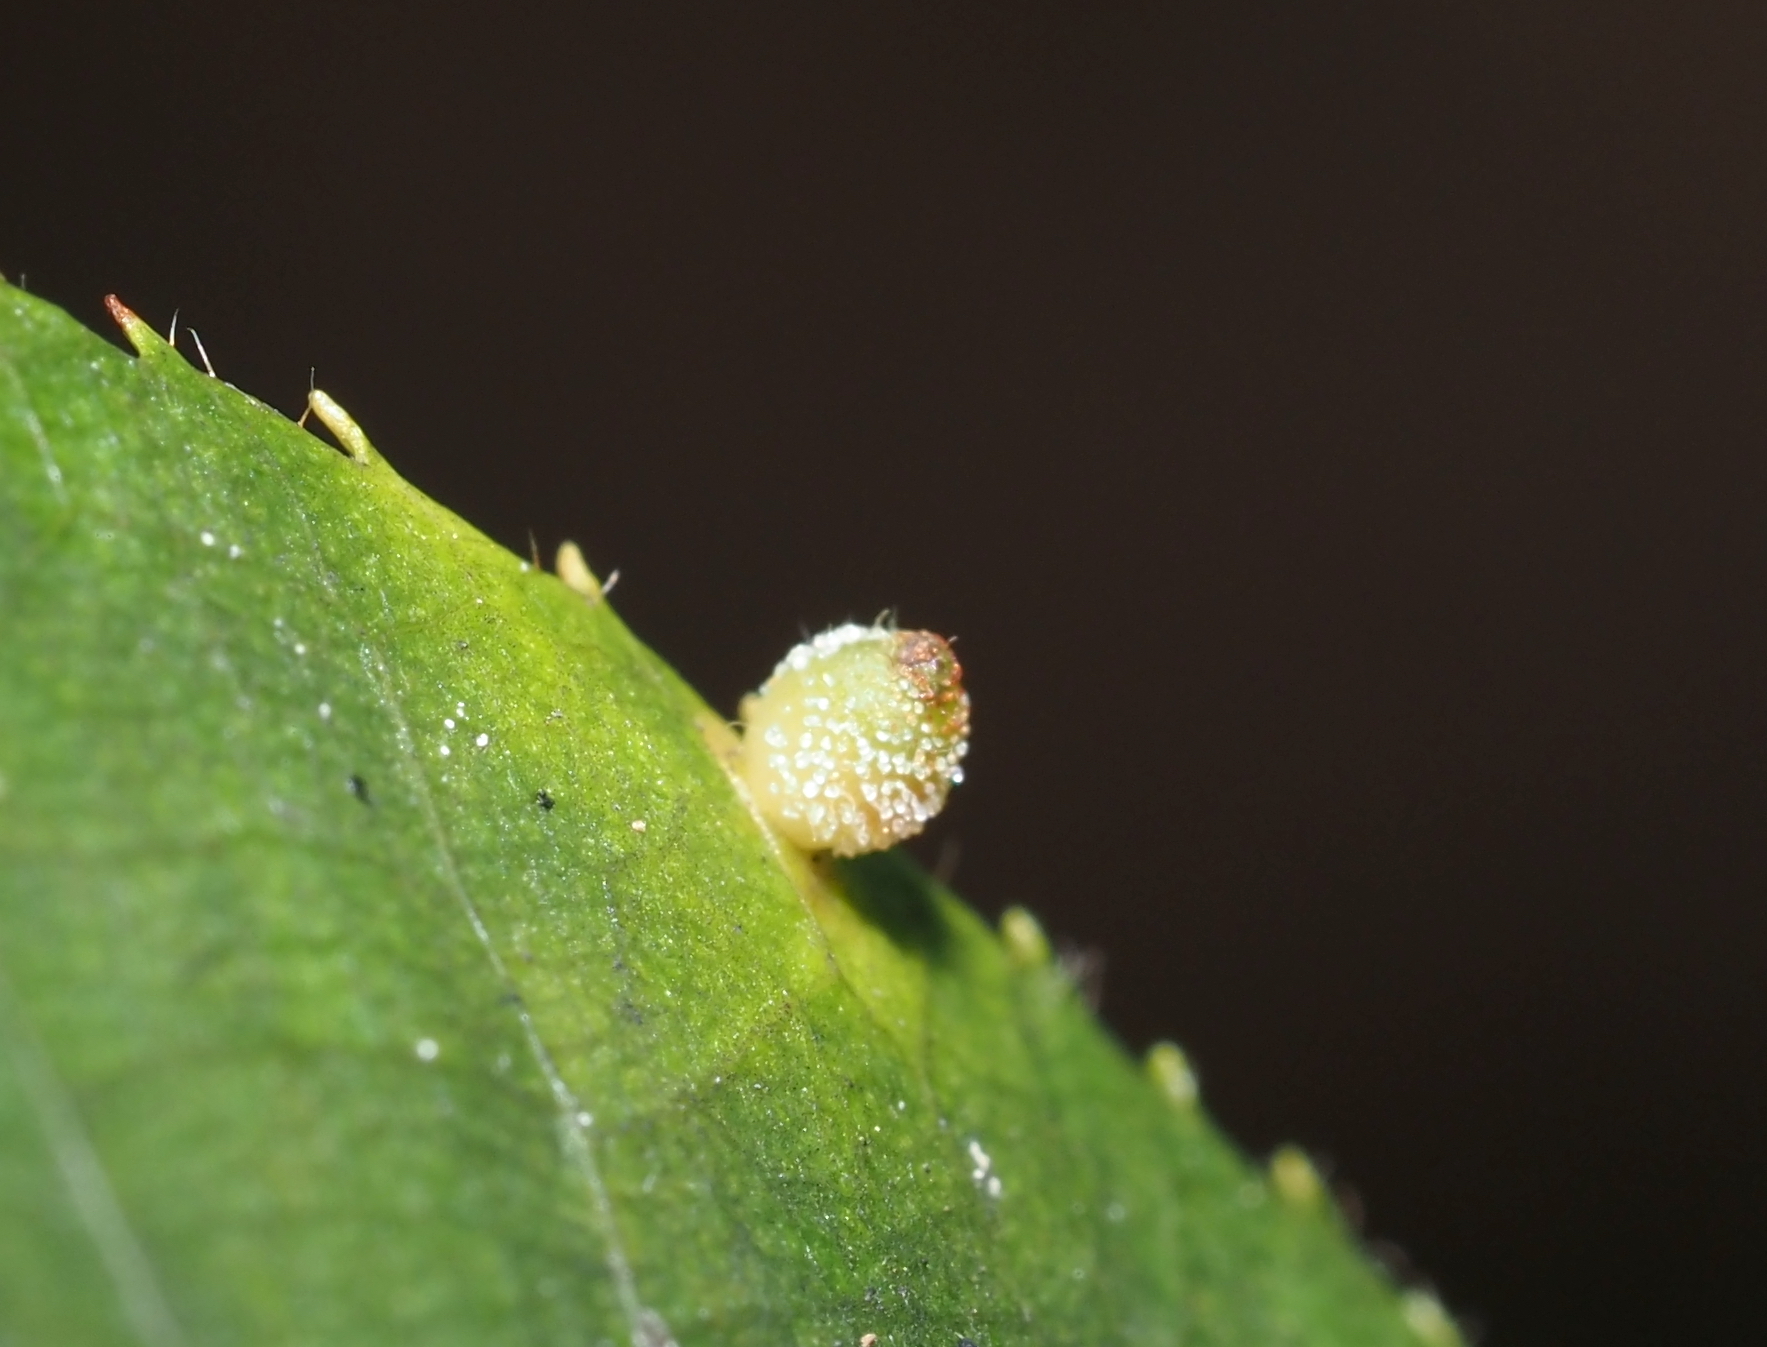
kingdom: Animalia
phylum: Arthropoda
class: Insecta
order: Diptera
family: Cecidomyiidae
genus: Caryomyia
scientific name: Caryomyia viscidolium
